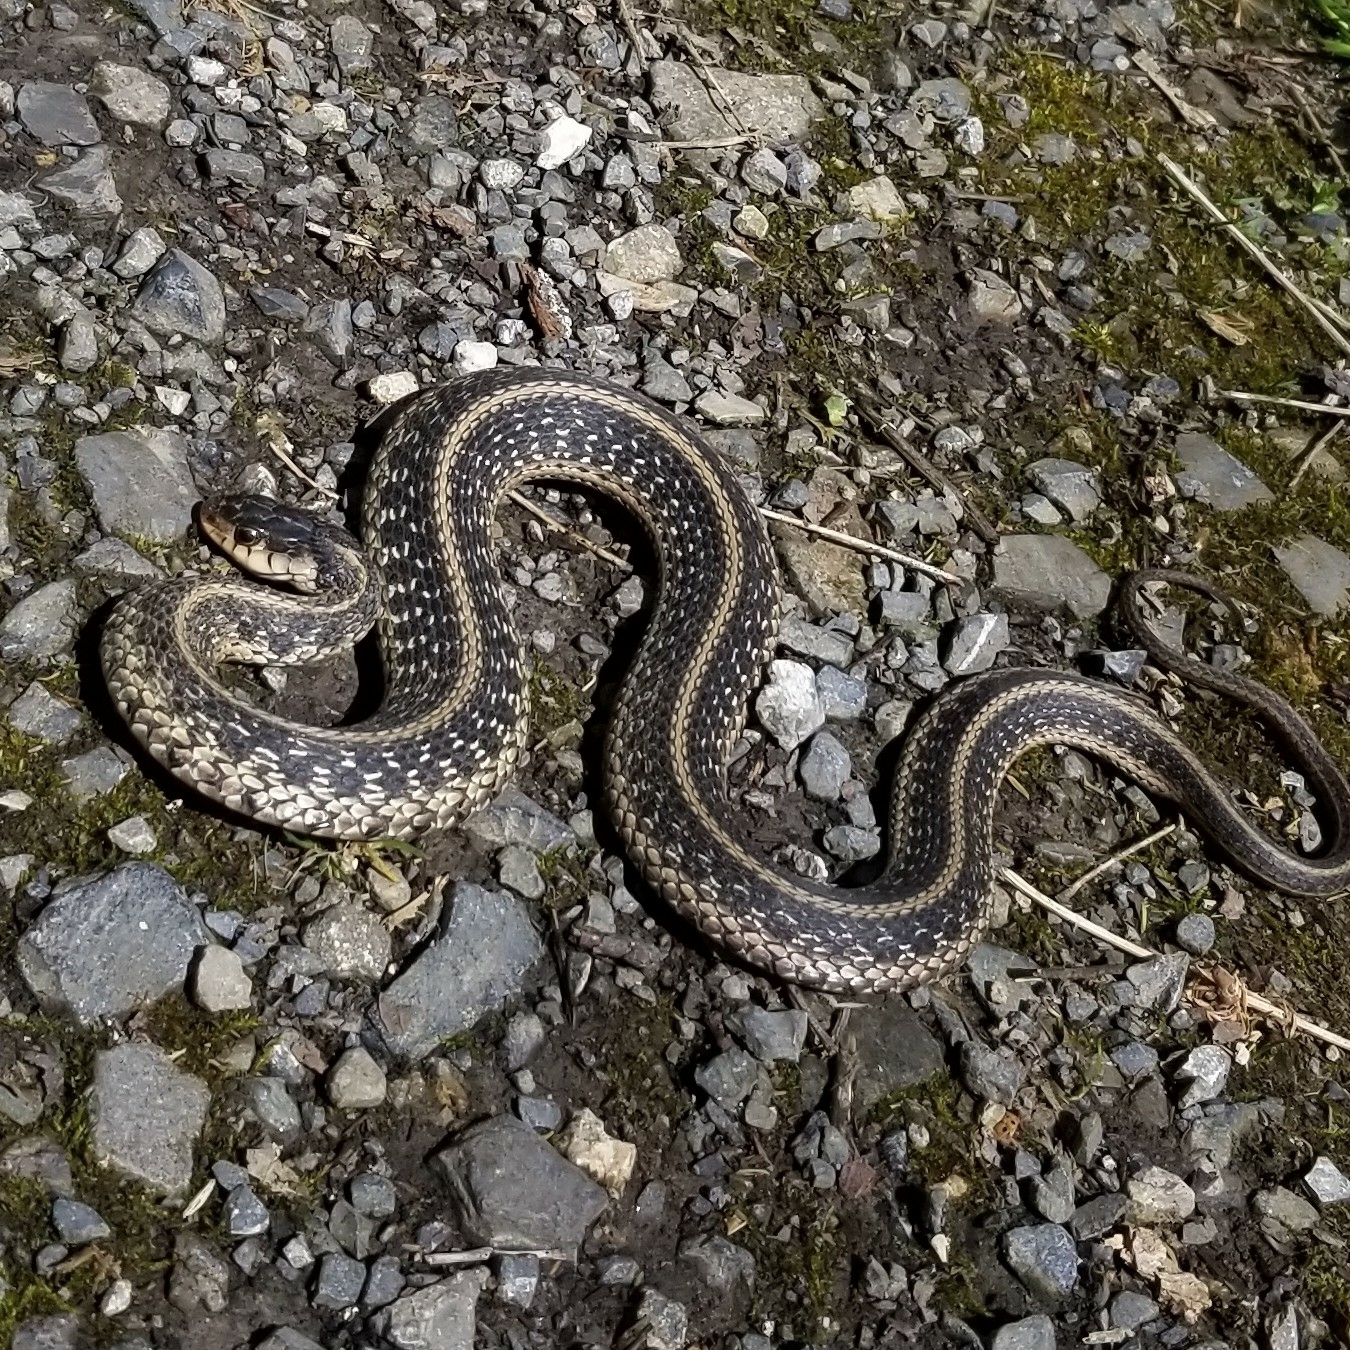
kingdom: Animalia
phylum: Chordata
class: Squamata
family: Colubridae
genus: Thamnophis
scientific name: Thamnophis sirtalis
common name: Common garter snake
